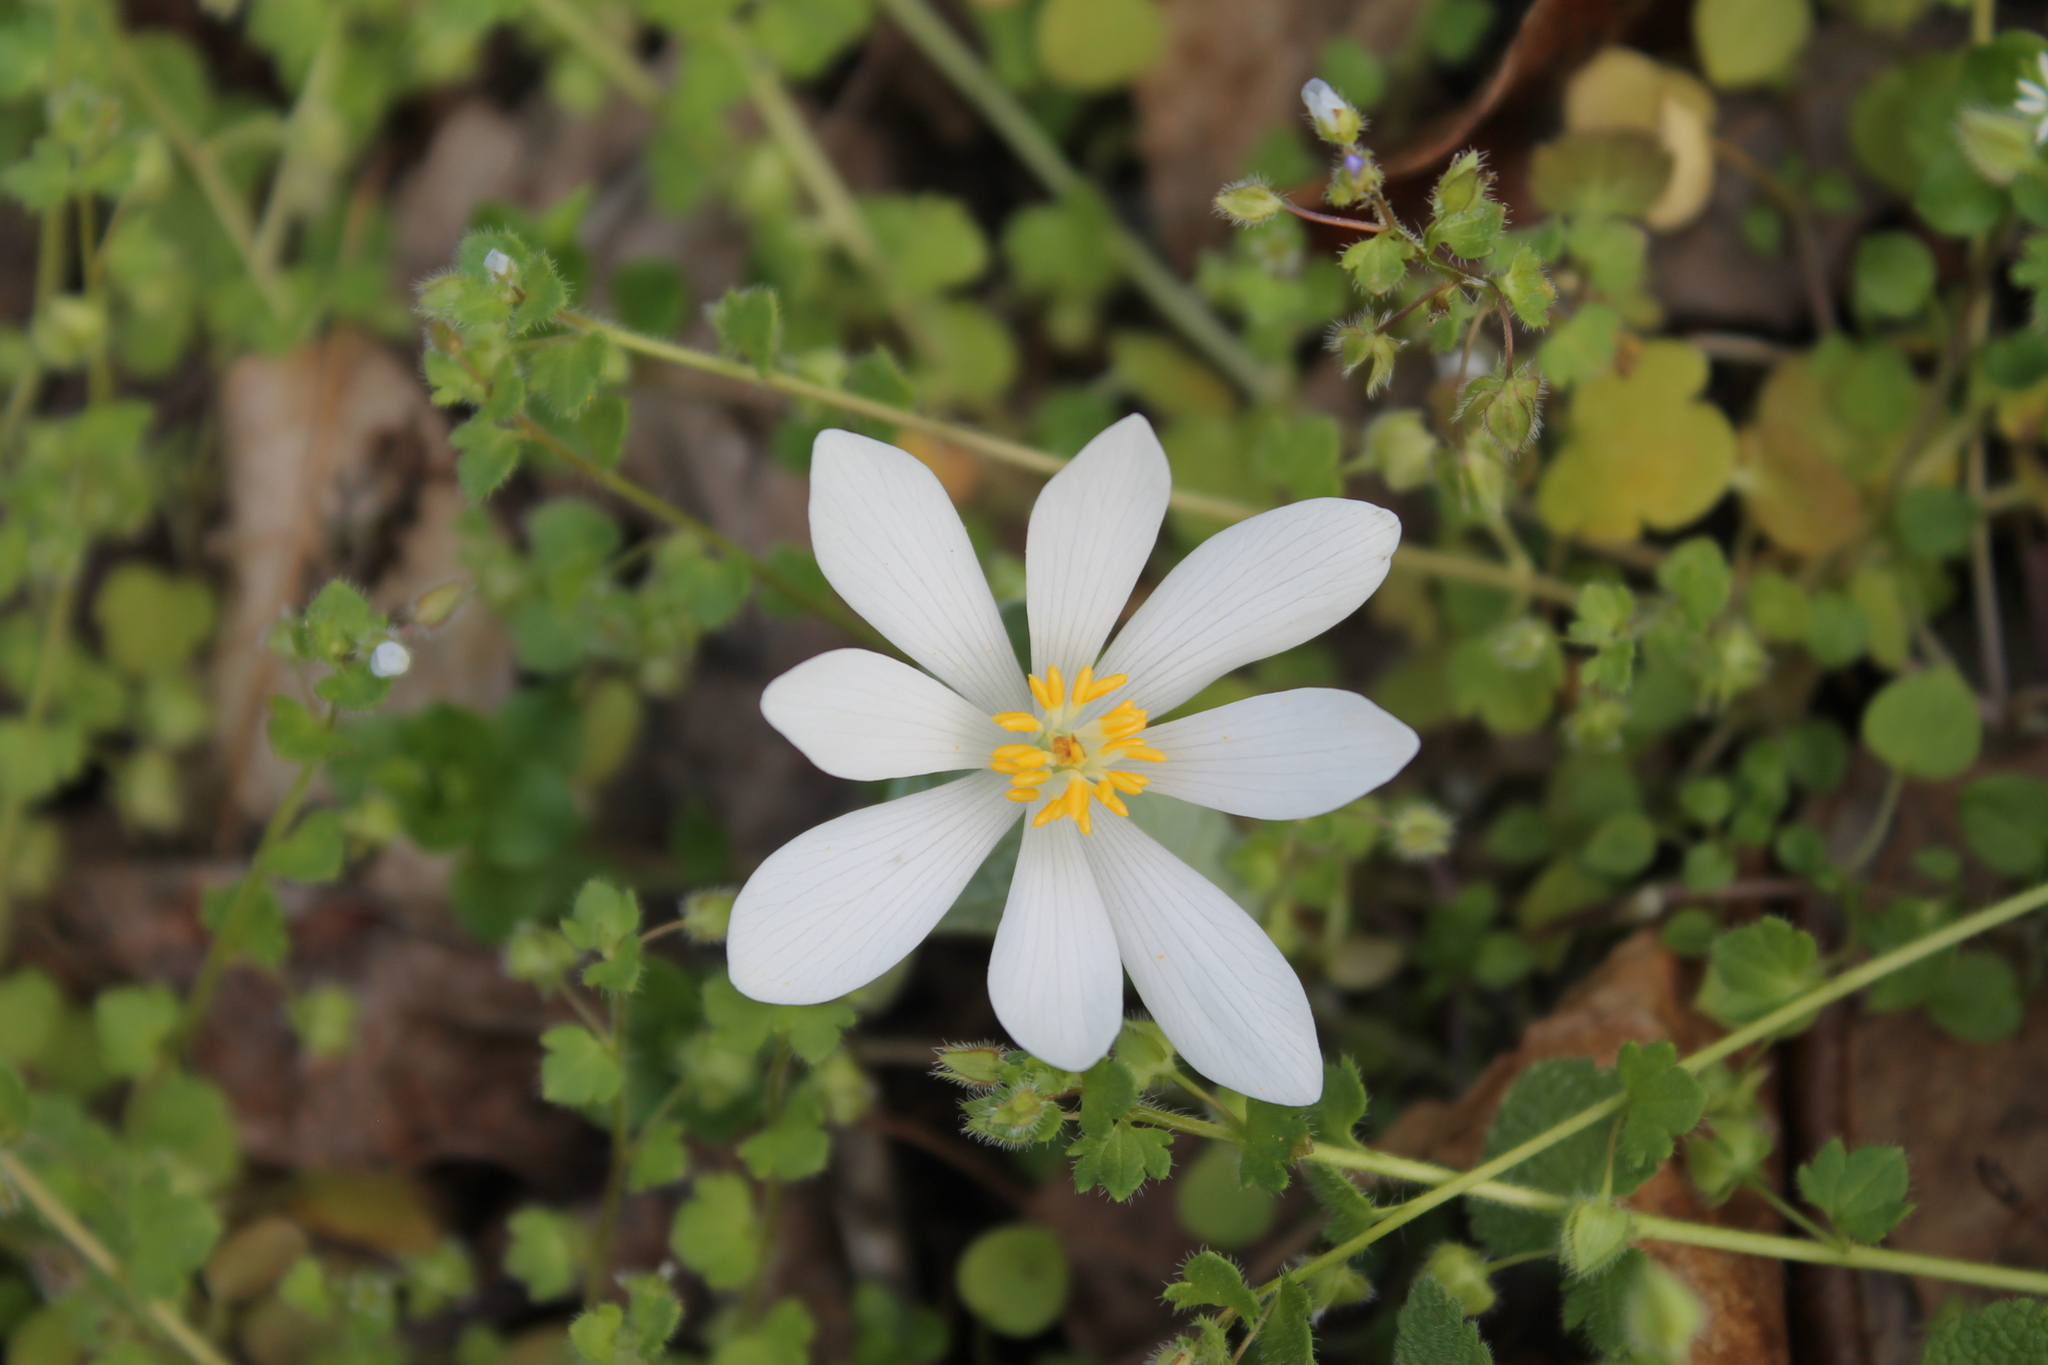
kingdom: Plantae
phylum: Tracheophyta
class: Magnoliopsida
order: Ranunculales
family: Papaveraceae
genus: Sanguinaria
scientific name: Sanguinaria canadensis
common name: Bloodroot
